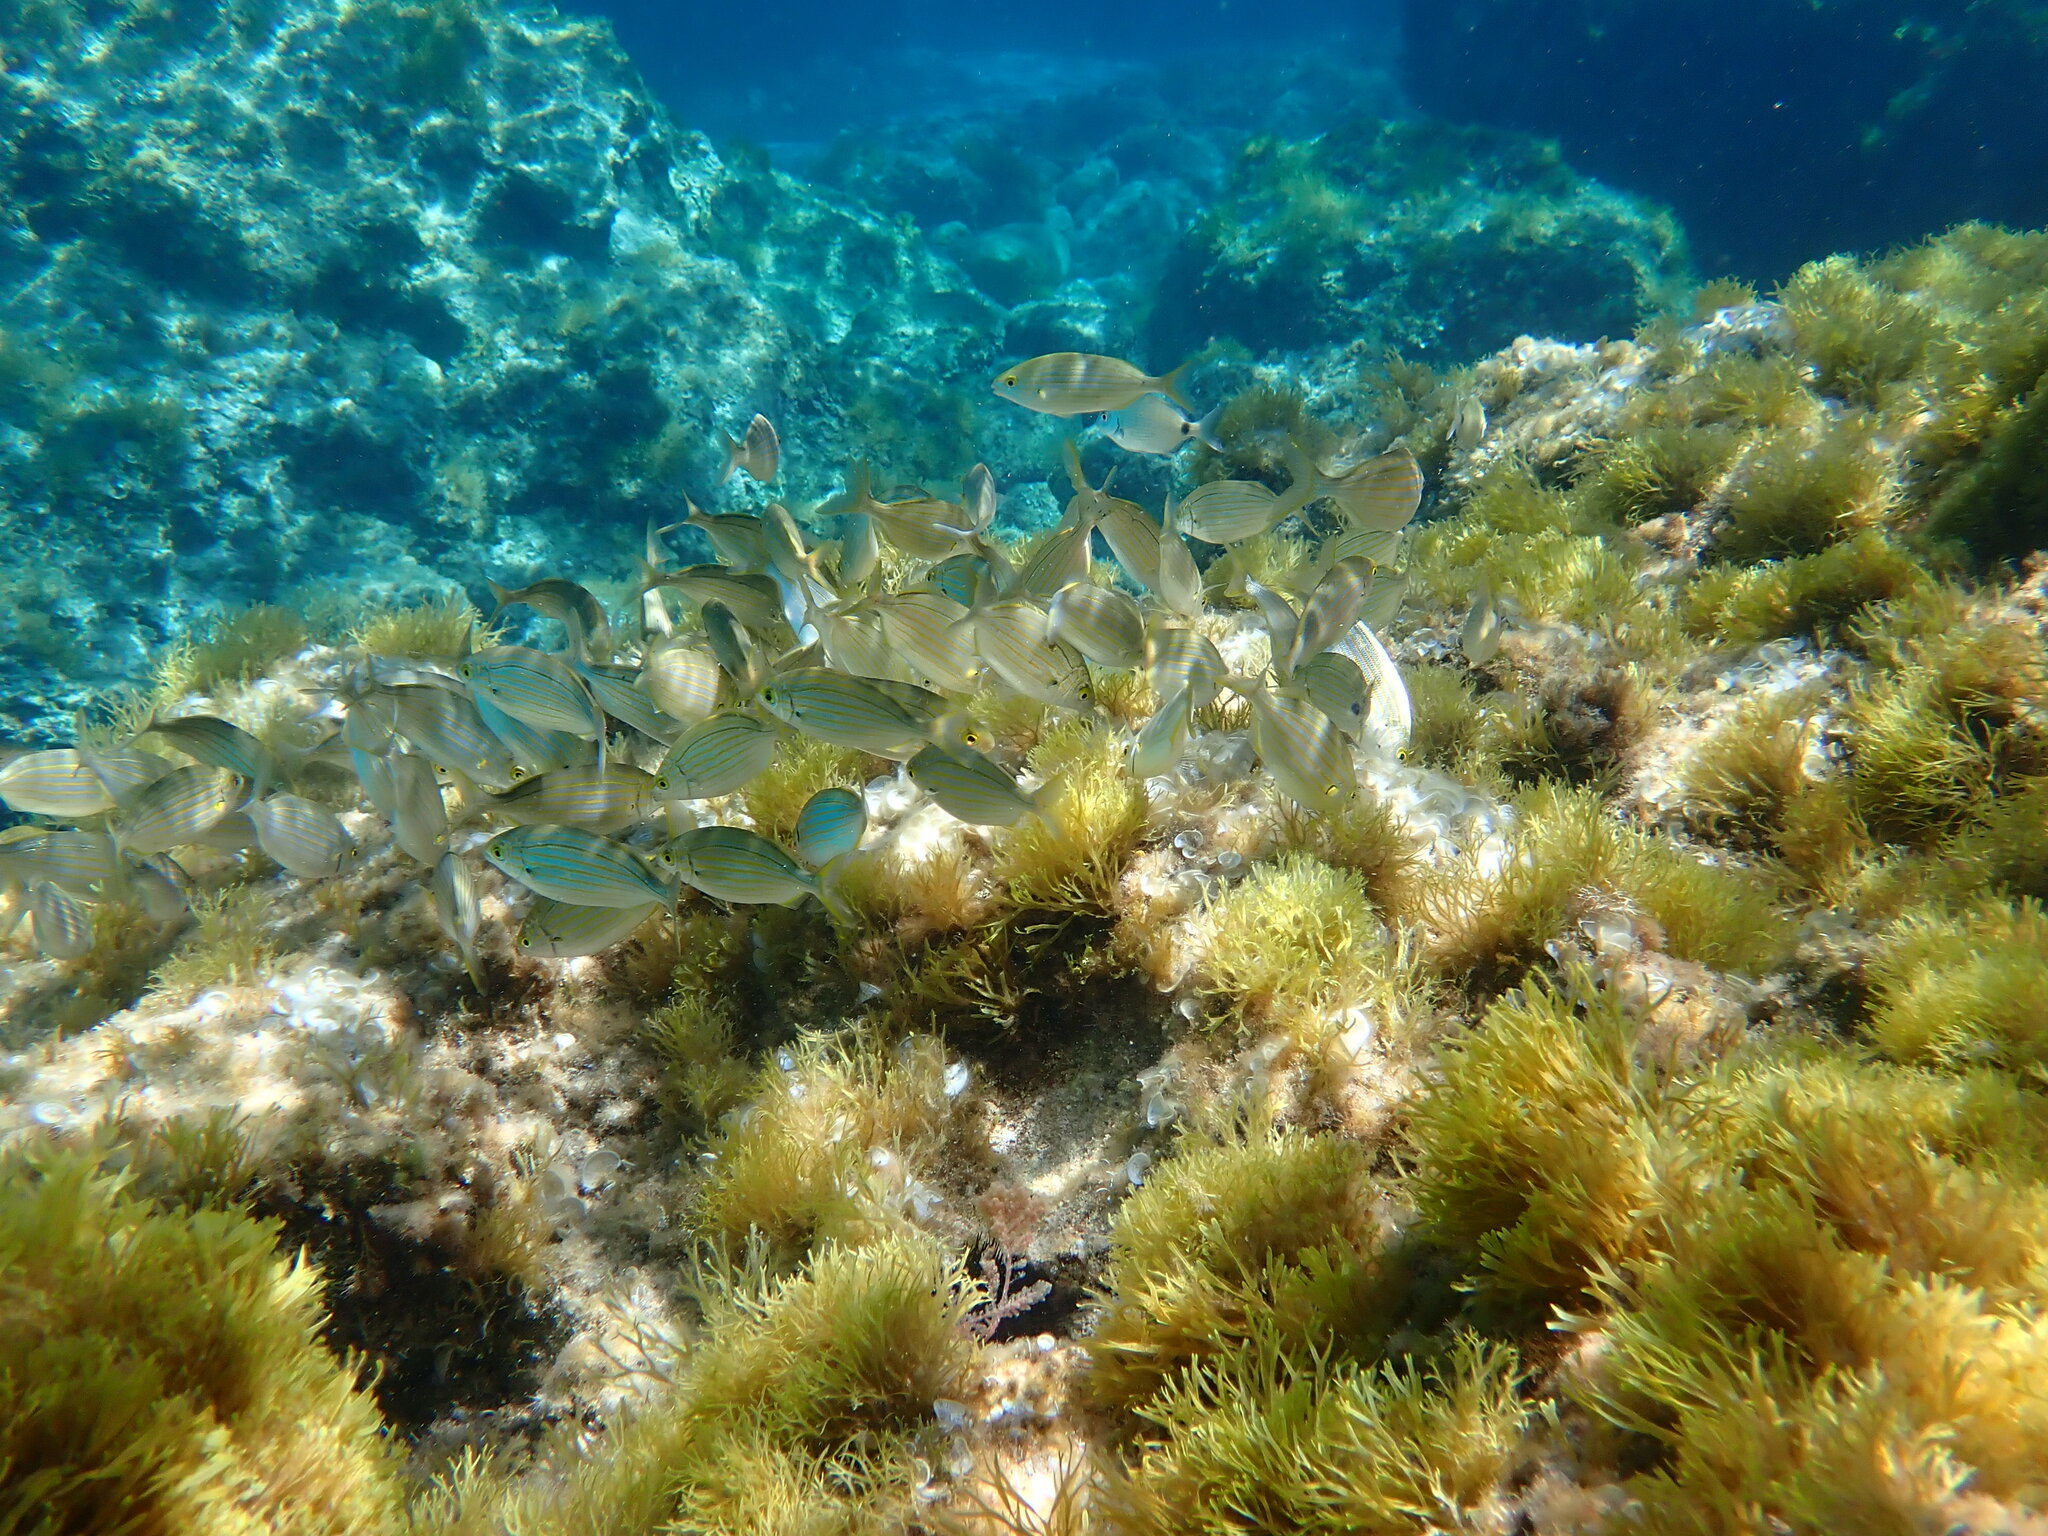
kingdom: Animalia
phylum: Chordata
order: Perciformes
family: Sparidae
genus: Sarpa
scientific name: Sarpa salpa
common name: Salema
